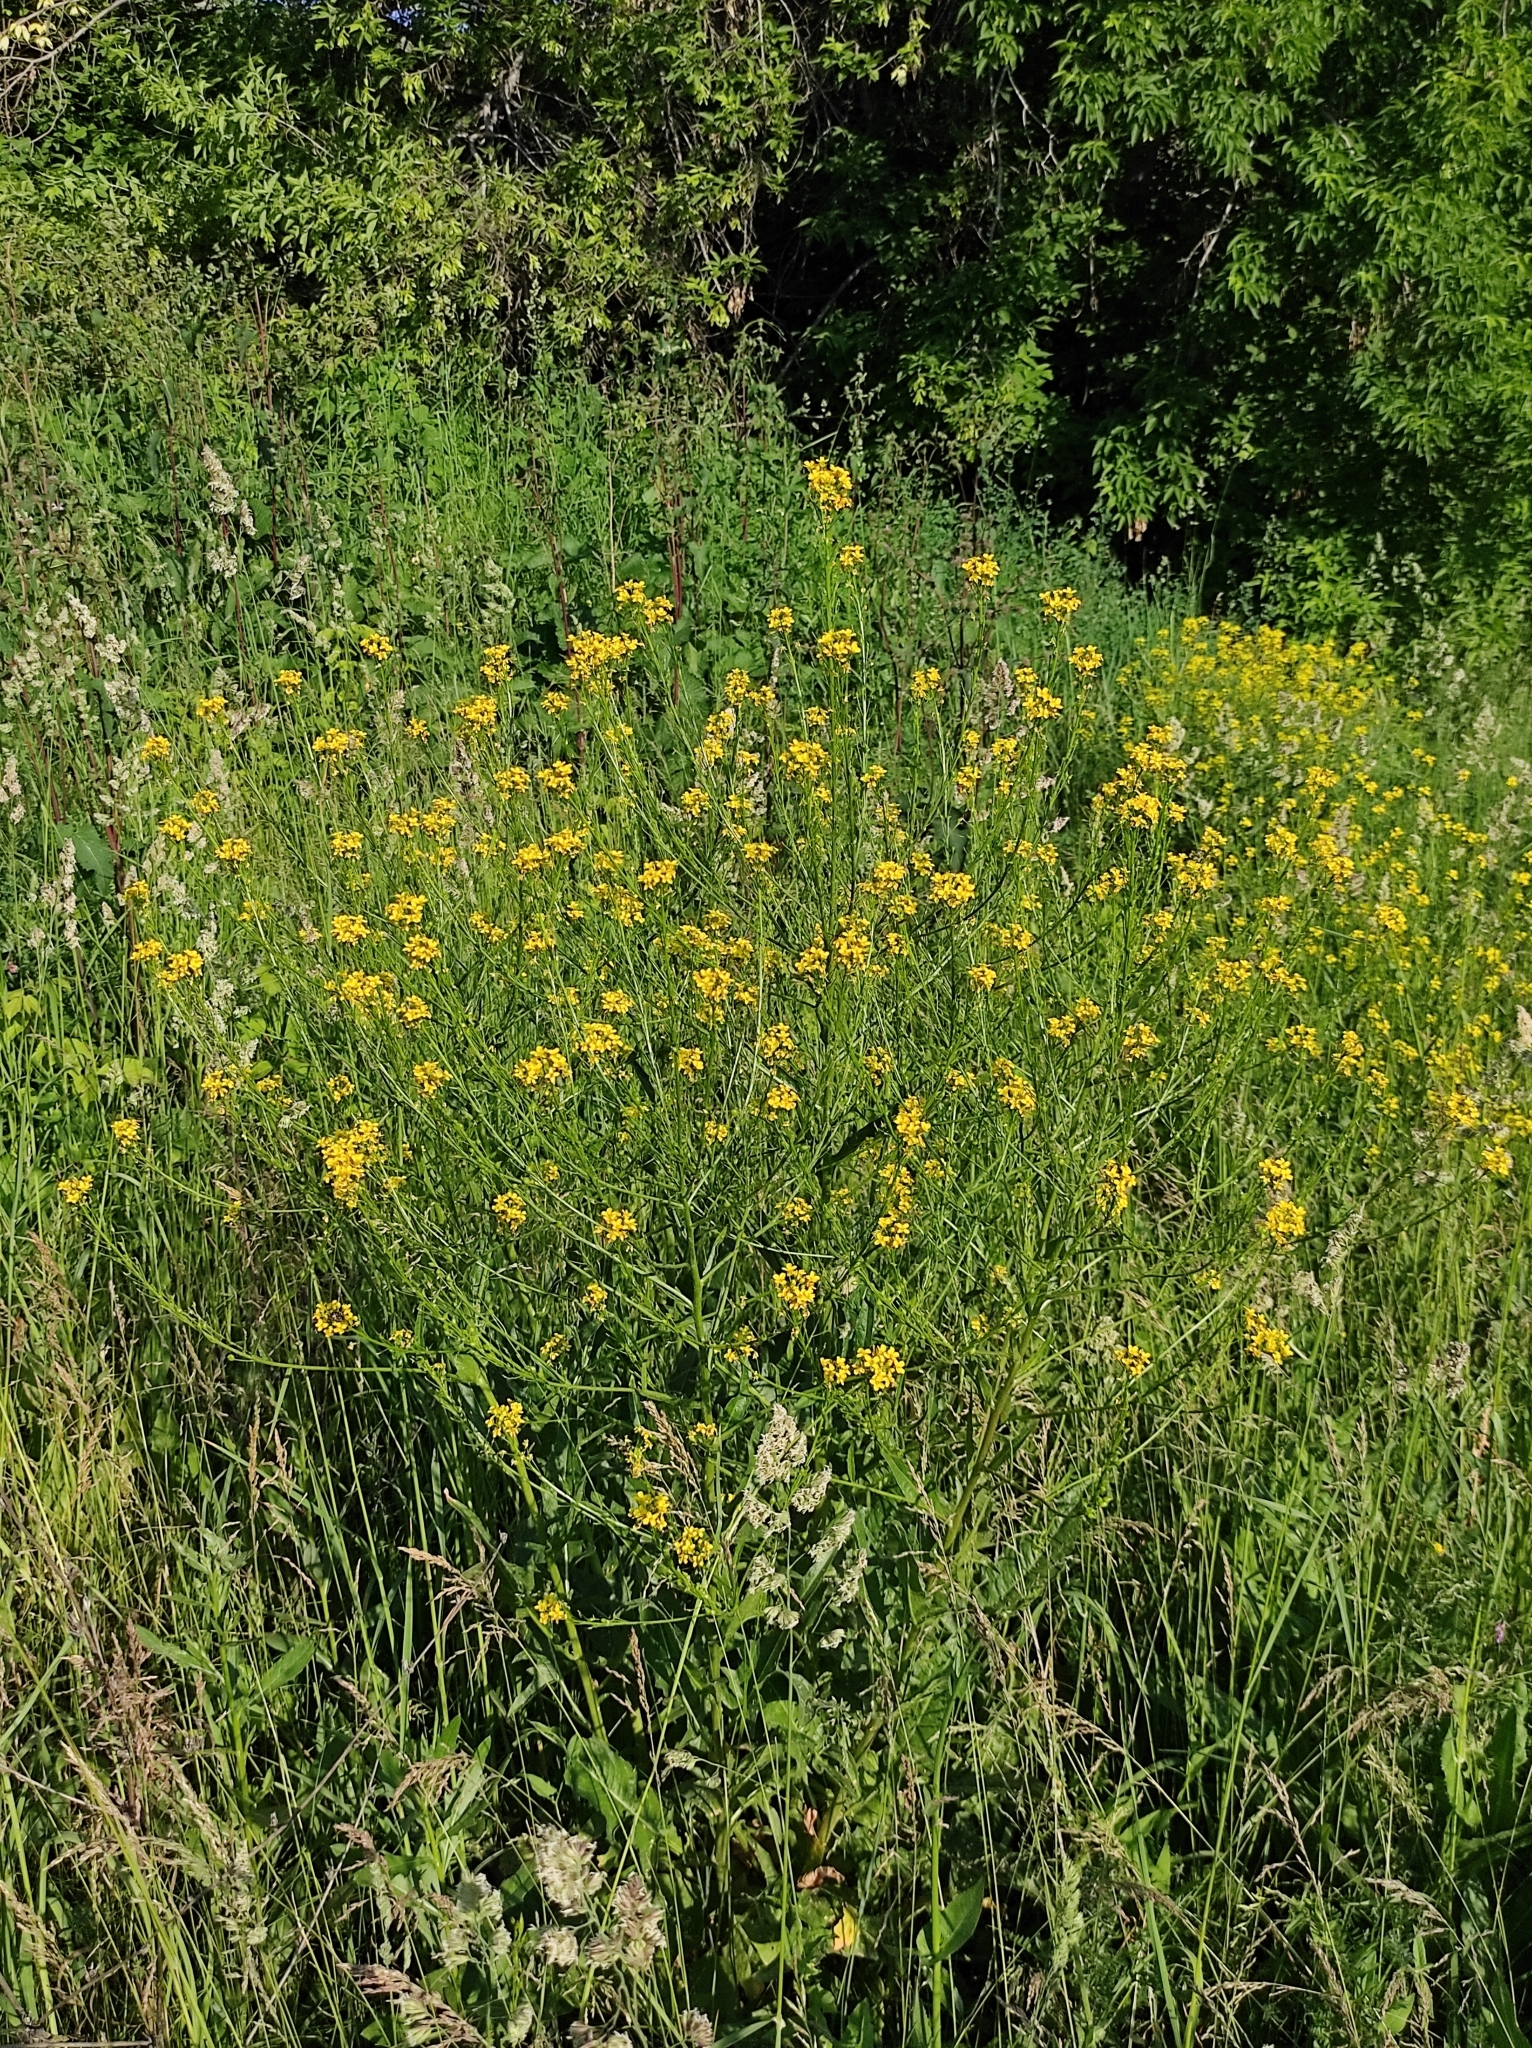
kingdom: Plantae
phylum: Tracheophyta
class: Magnoliopsida
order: Brassicales
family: Brassicaceae
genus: Bunias
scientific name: Bunias orientalis
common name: Warty-cabbage
